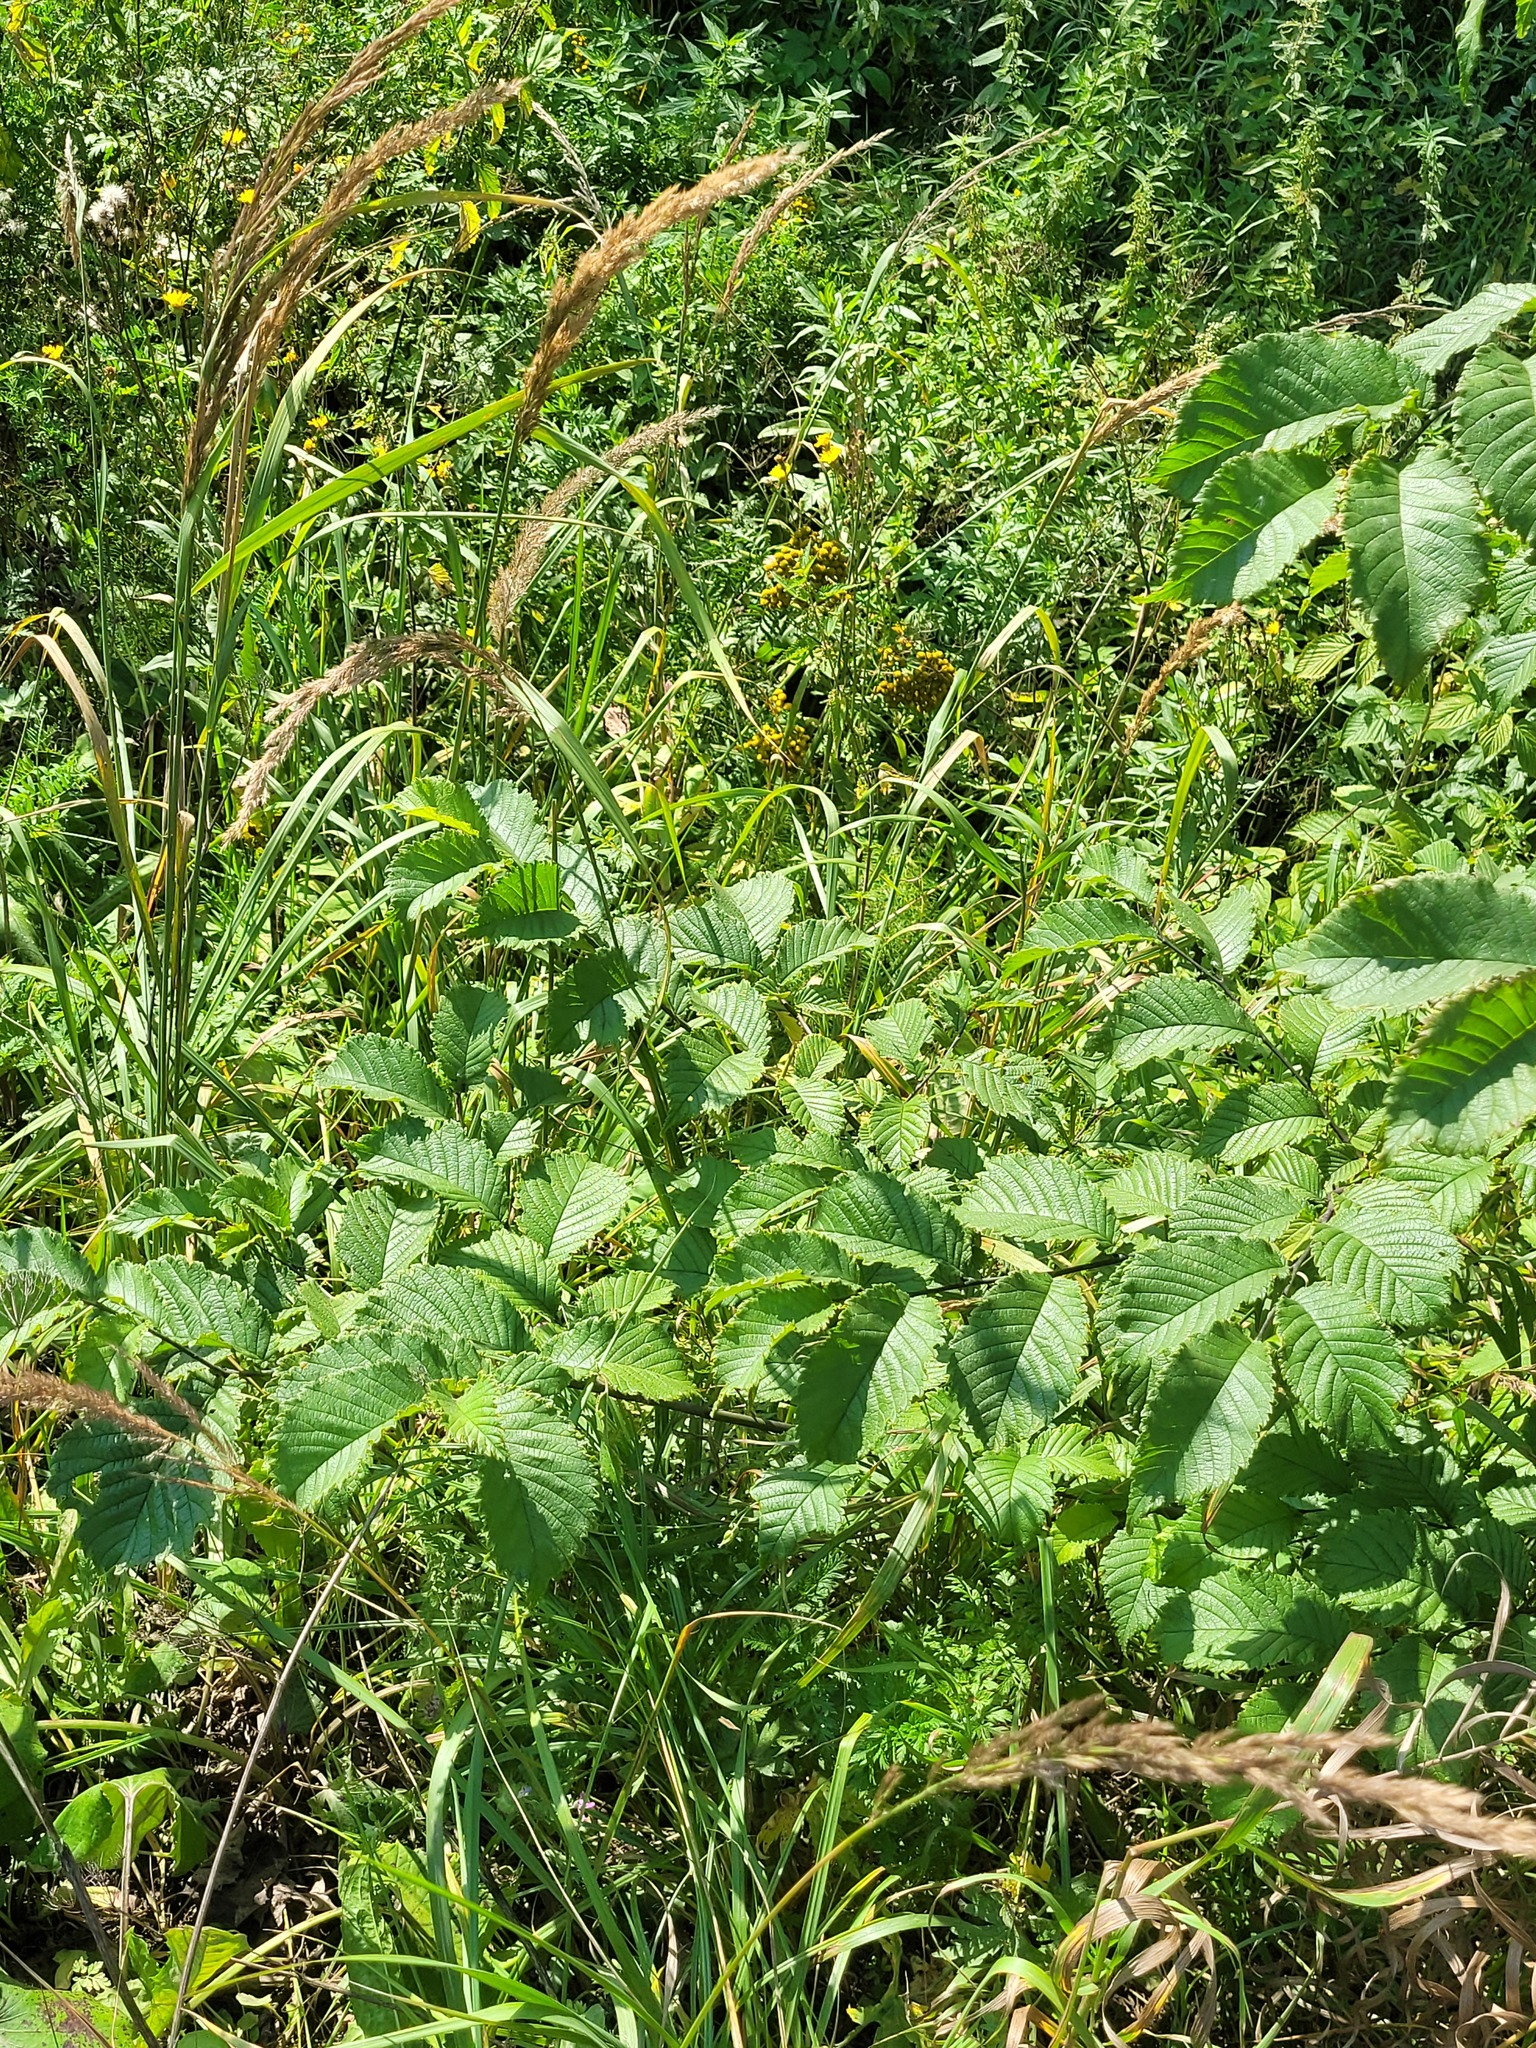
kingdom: Plantae
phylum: Tracheophyta
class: Magnoliopsida
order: Rosales
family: Ulmaceae
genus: Ulmus
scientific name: Ulmus glabra
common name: Wych elm
